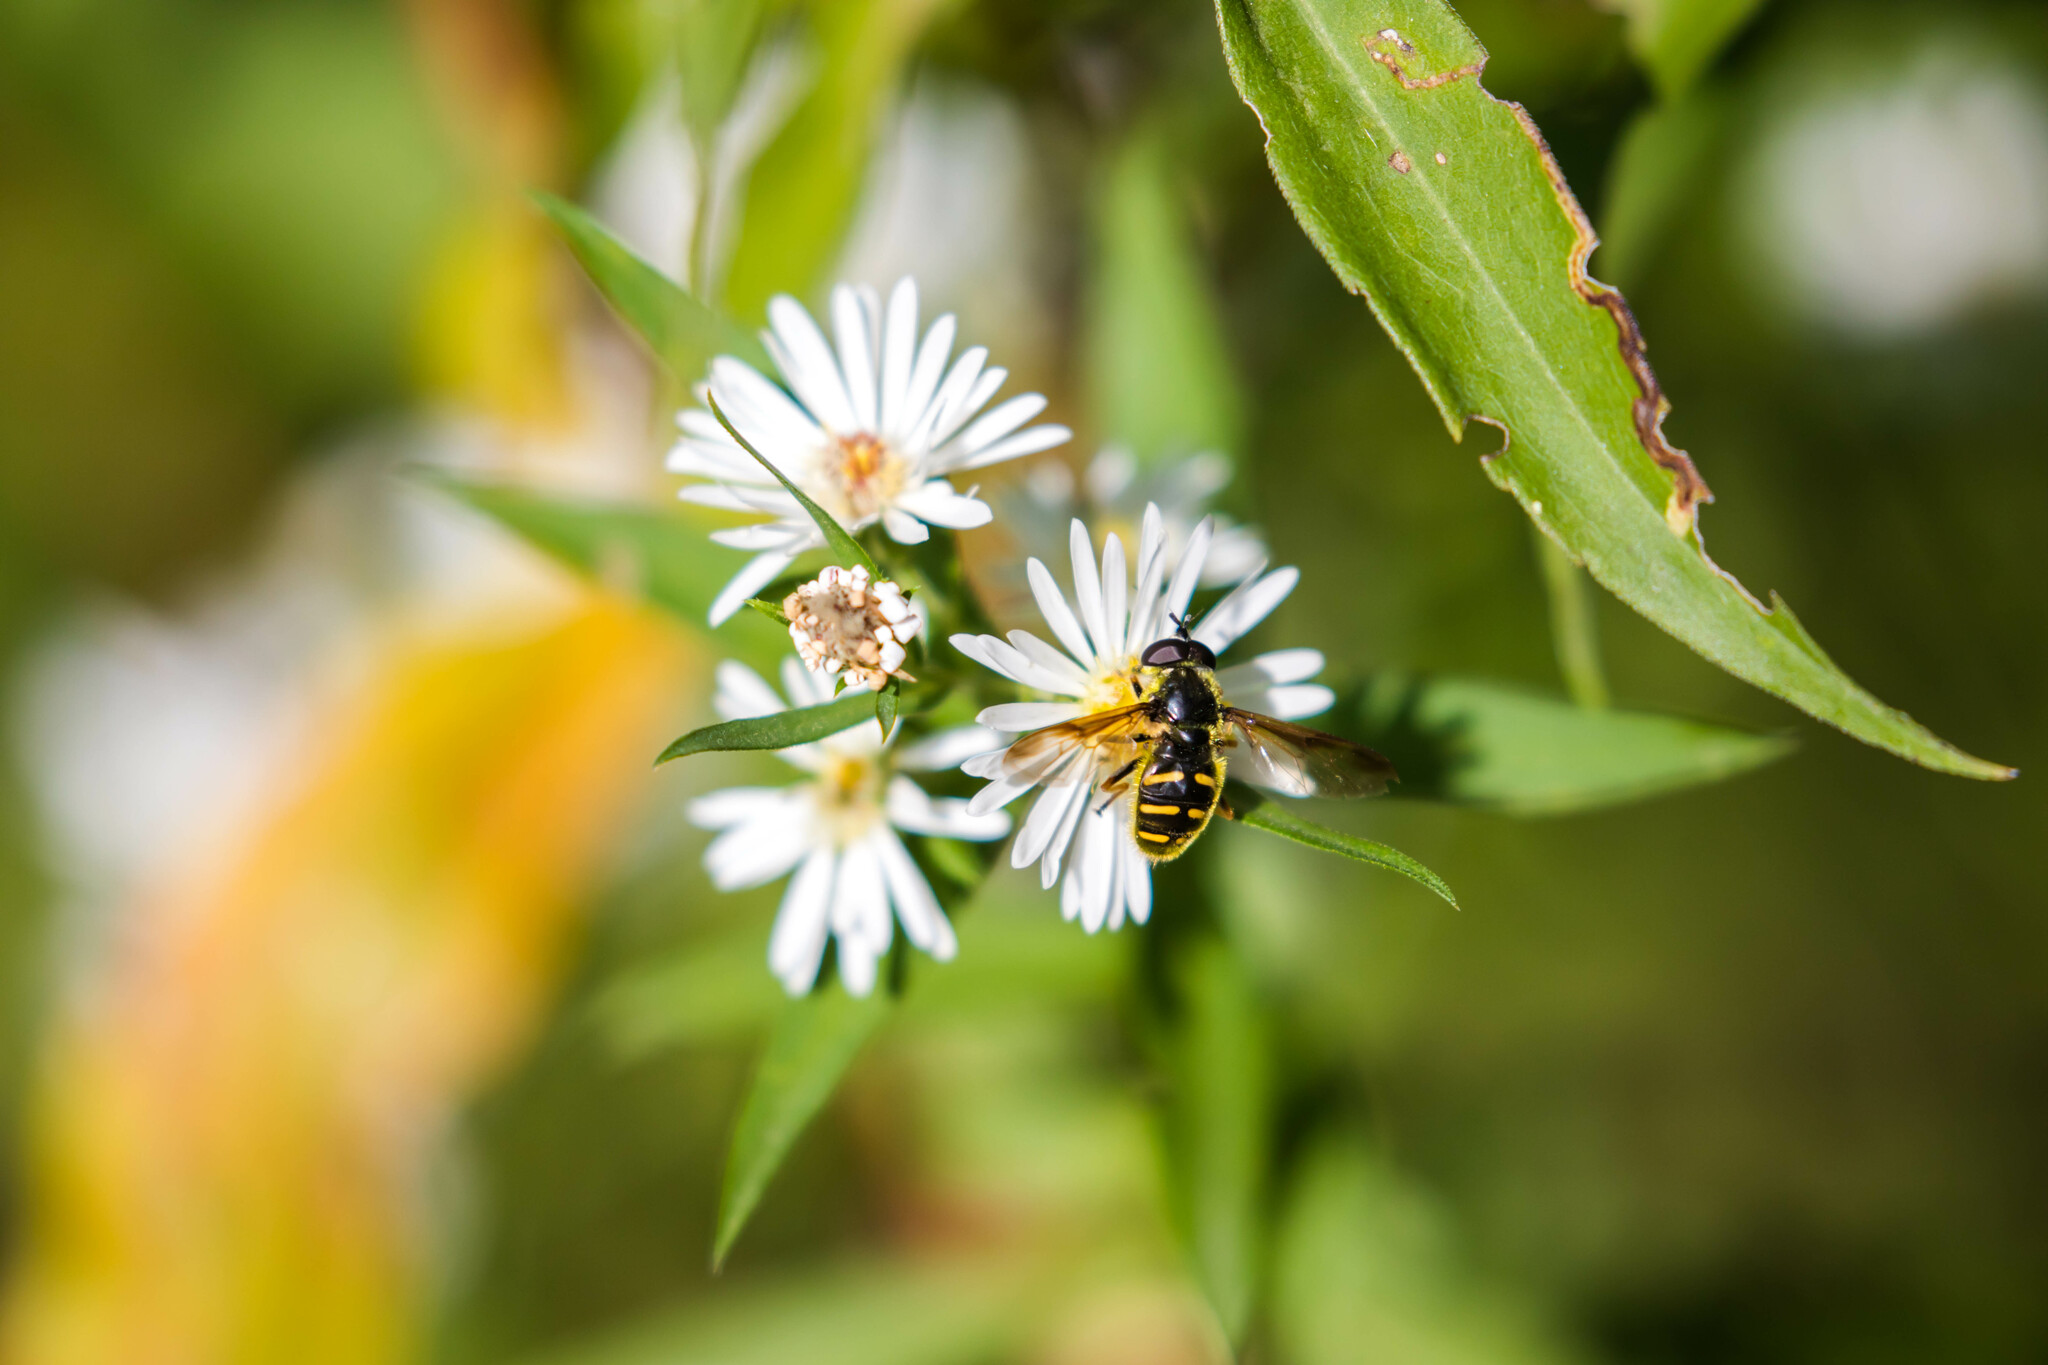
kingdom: Animalia
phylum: Arthropoda
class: Insecta
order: Diptera
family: Syrphidae
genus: Sericomyia
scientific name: Sericomyia chrysotoxoides
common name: Oblique-banded pond fly
